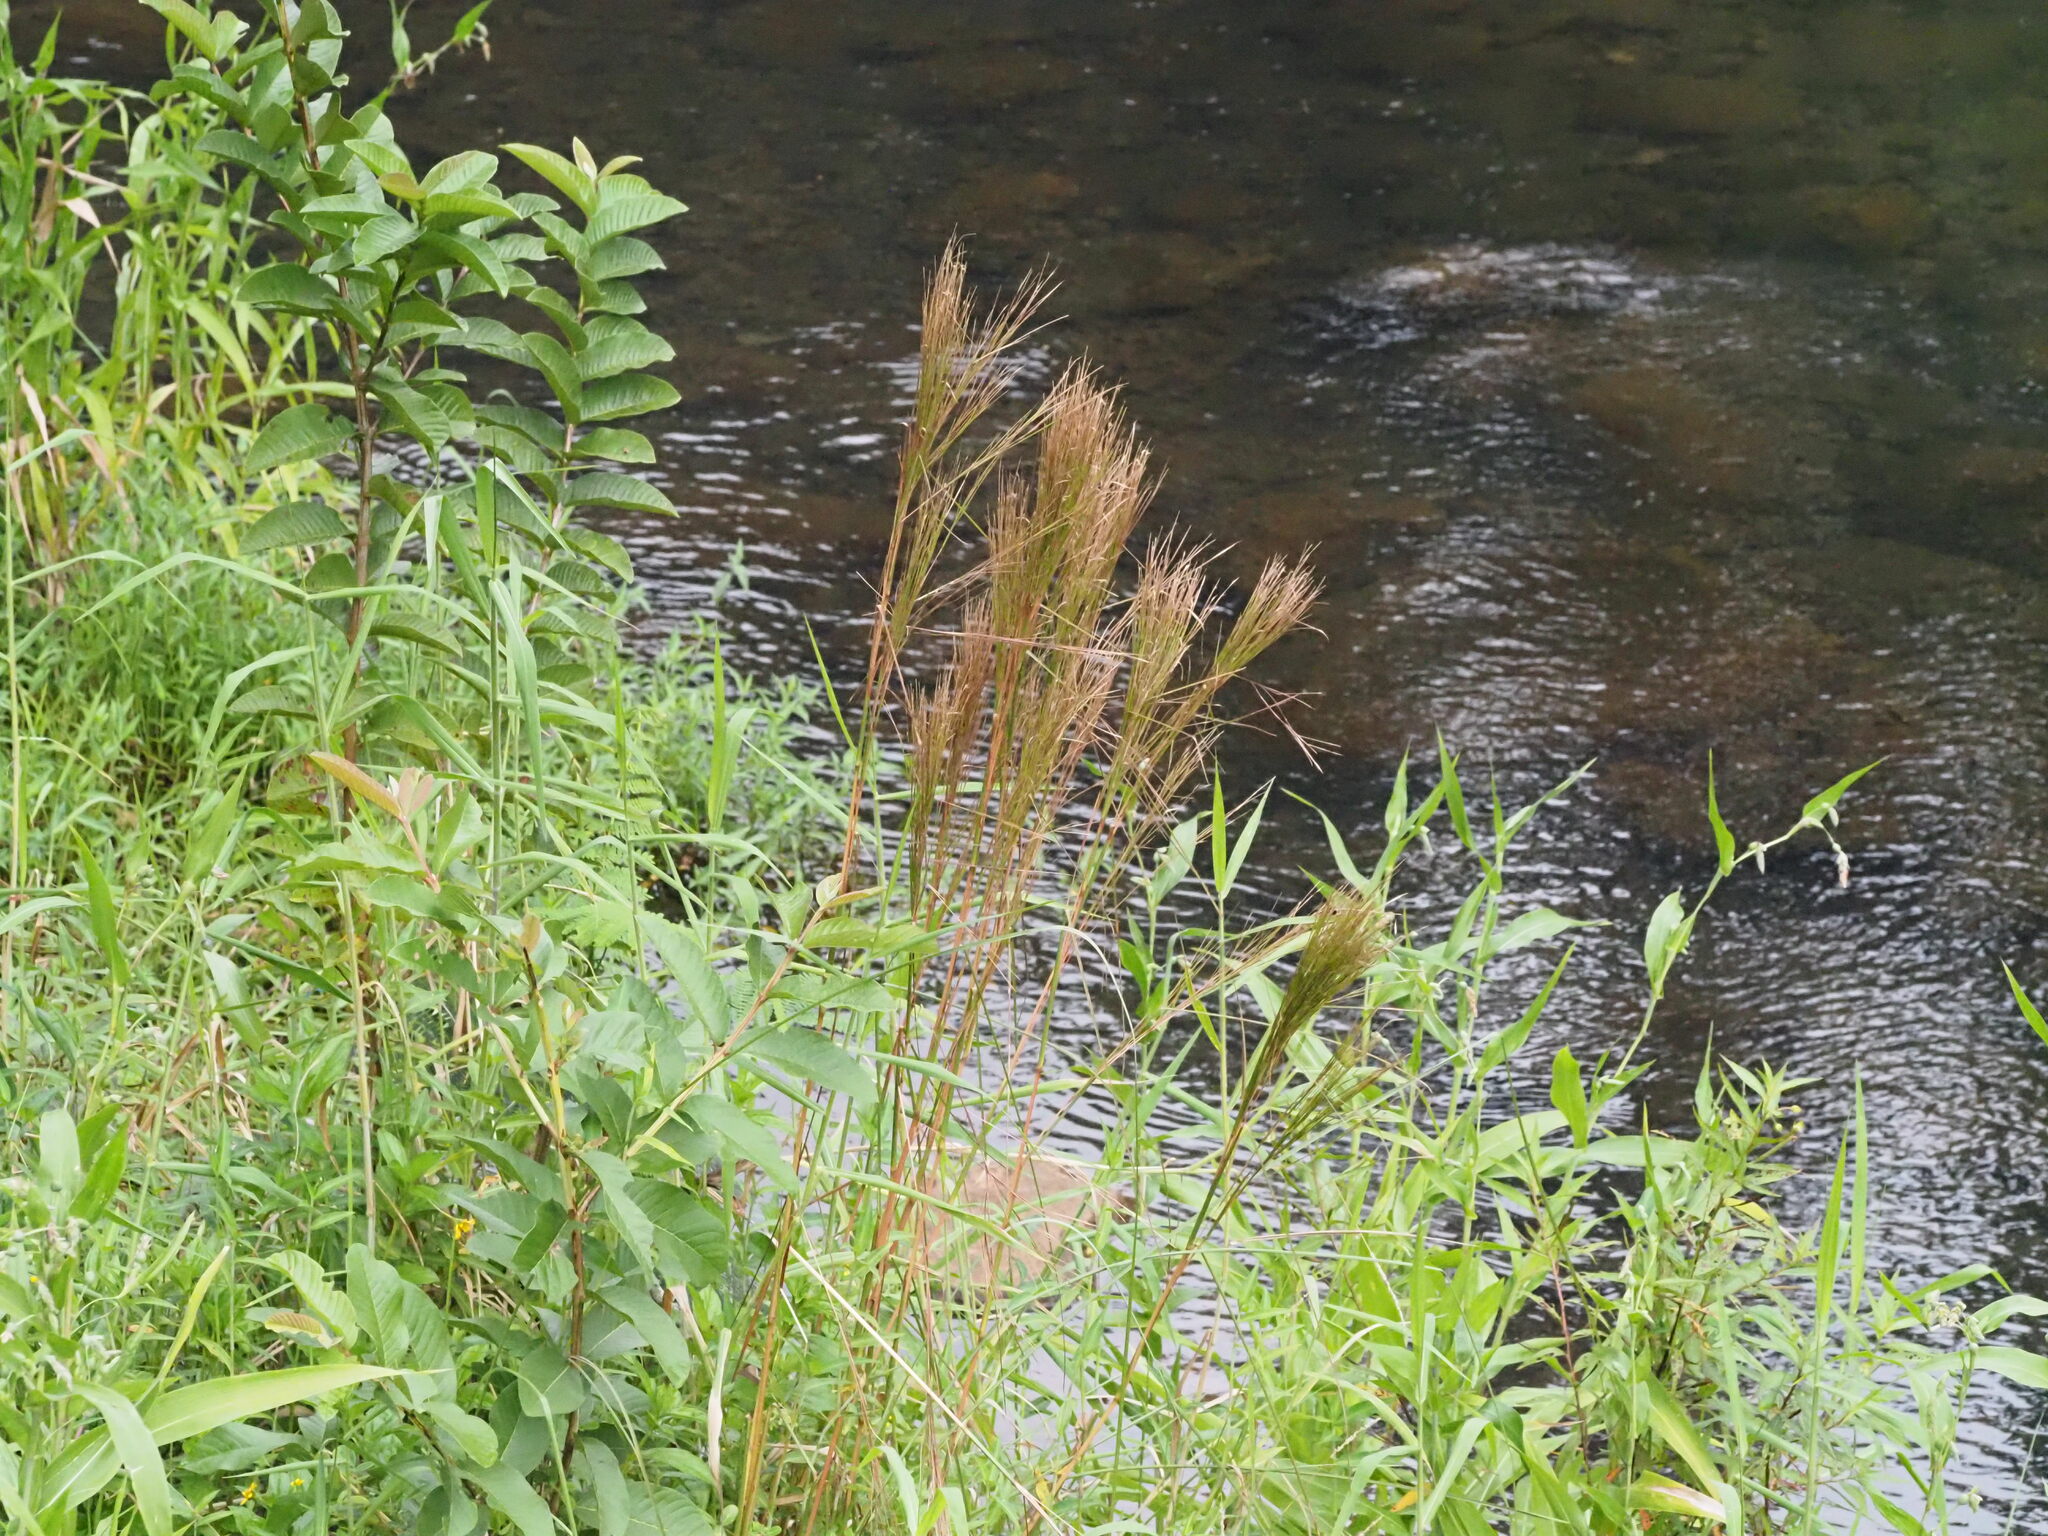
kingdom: Plantae
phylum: Tracheophyta
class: Liliopsida
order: Poales
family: Poaceae
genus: Andropogon
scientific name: Andropogon bicornis
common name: West indian foxtail grass
